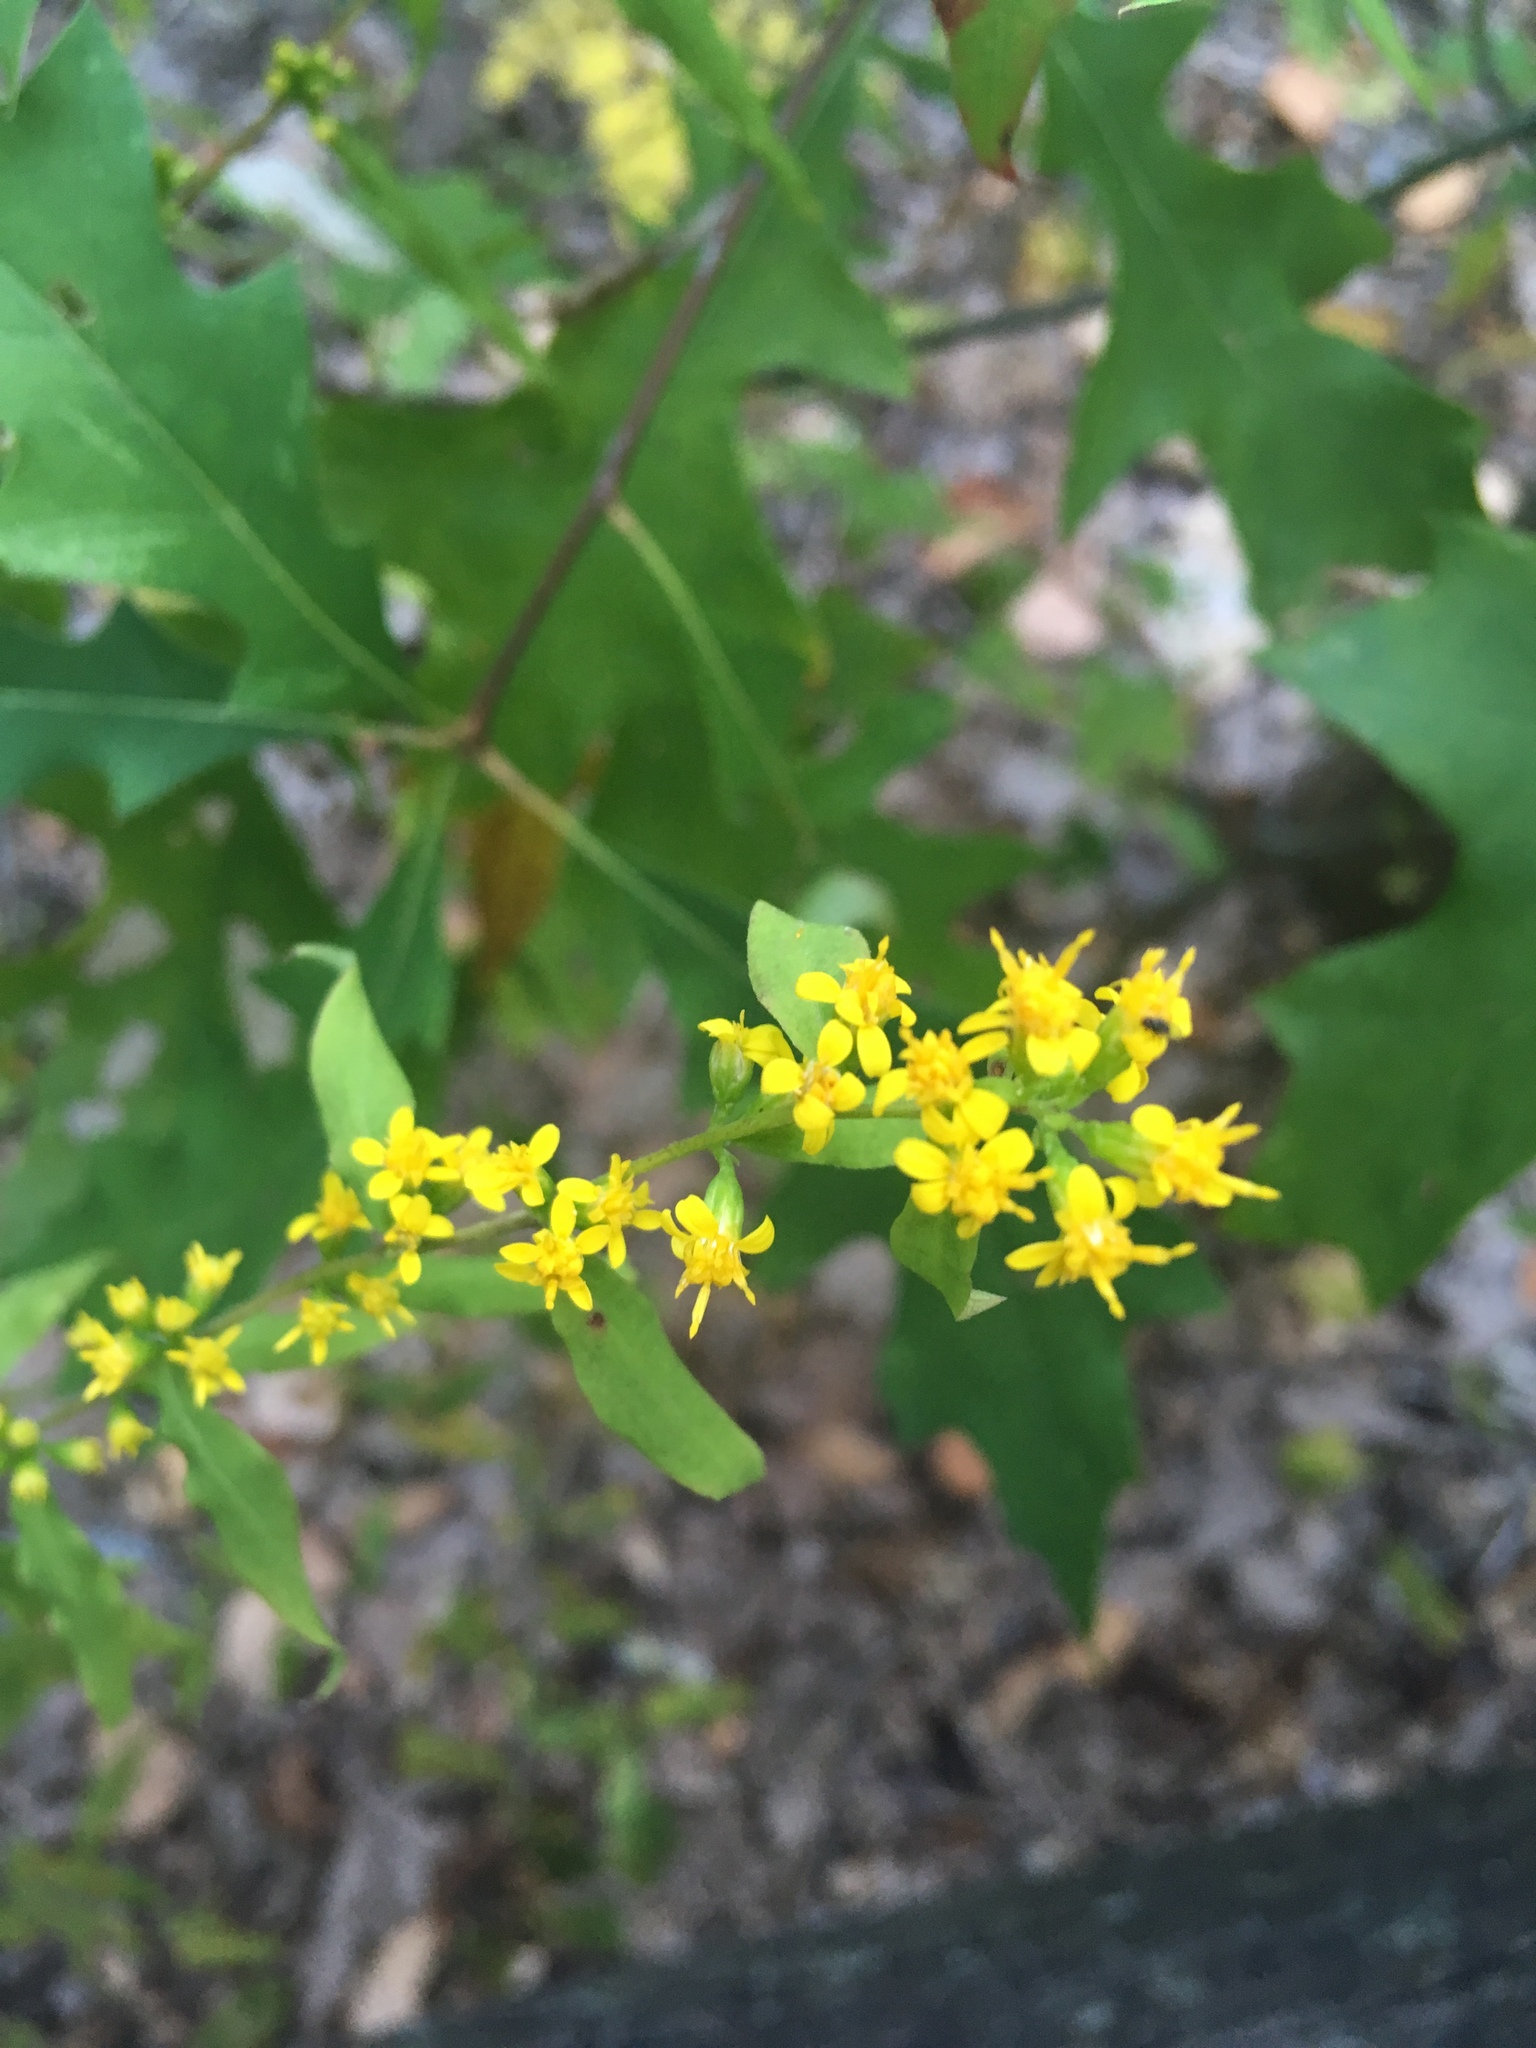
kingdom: Plantae
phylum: Tracheophyta
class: Magnoliopsida
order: Asterales
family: Asteraceae
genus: Solidago
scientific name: Solidago caesia
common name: Woodland goldenrod
